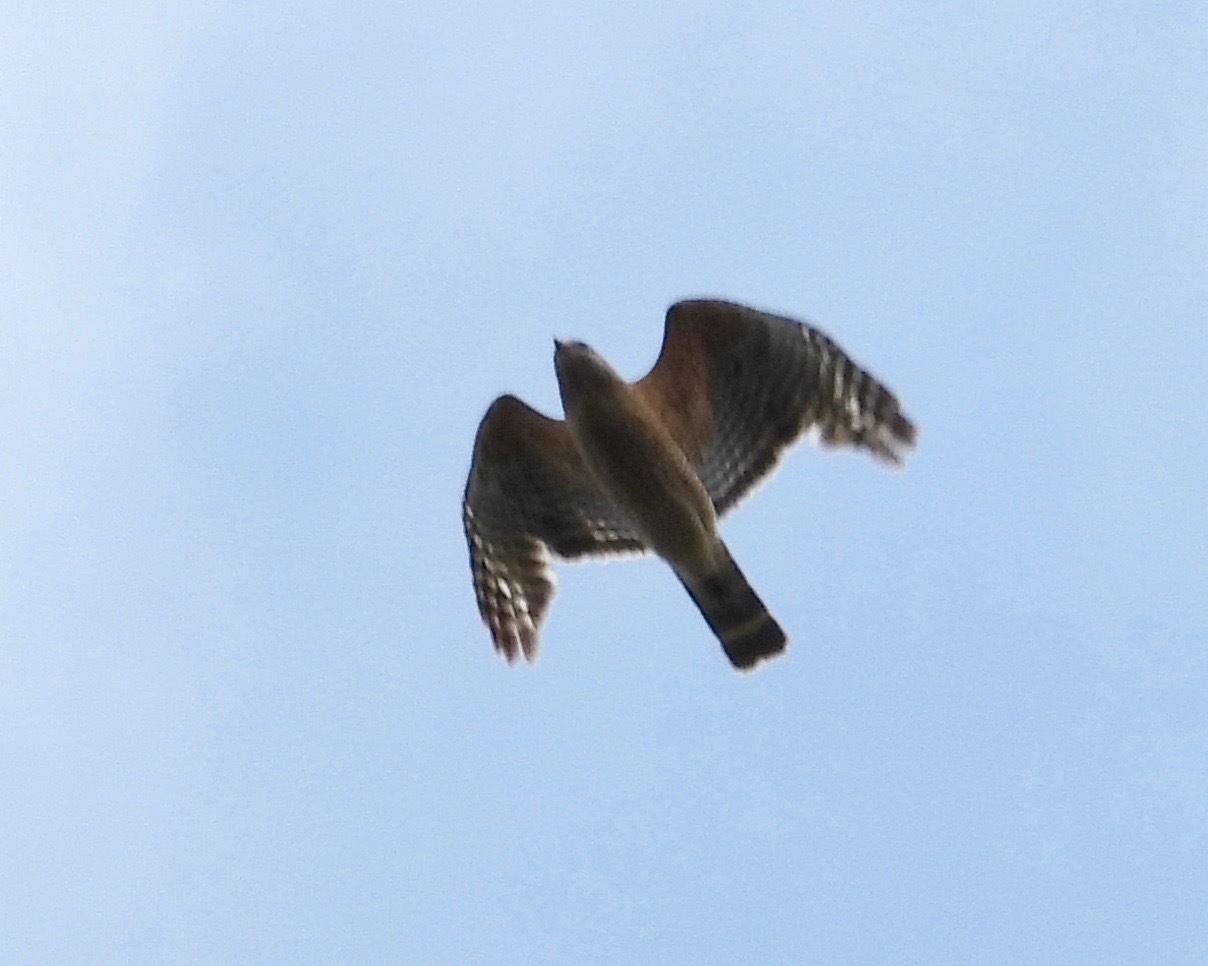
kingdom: Animalia
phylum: Chordata
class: Aves
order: Accipitriformes
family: Accipitridae
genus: Buteo
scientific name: Buteo lineatus
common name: Red-shouldered hawk
